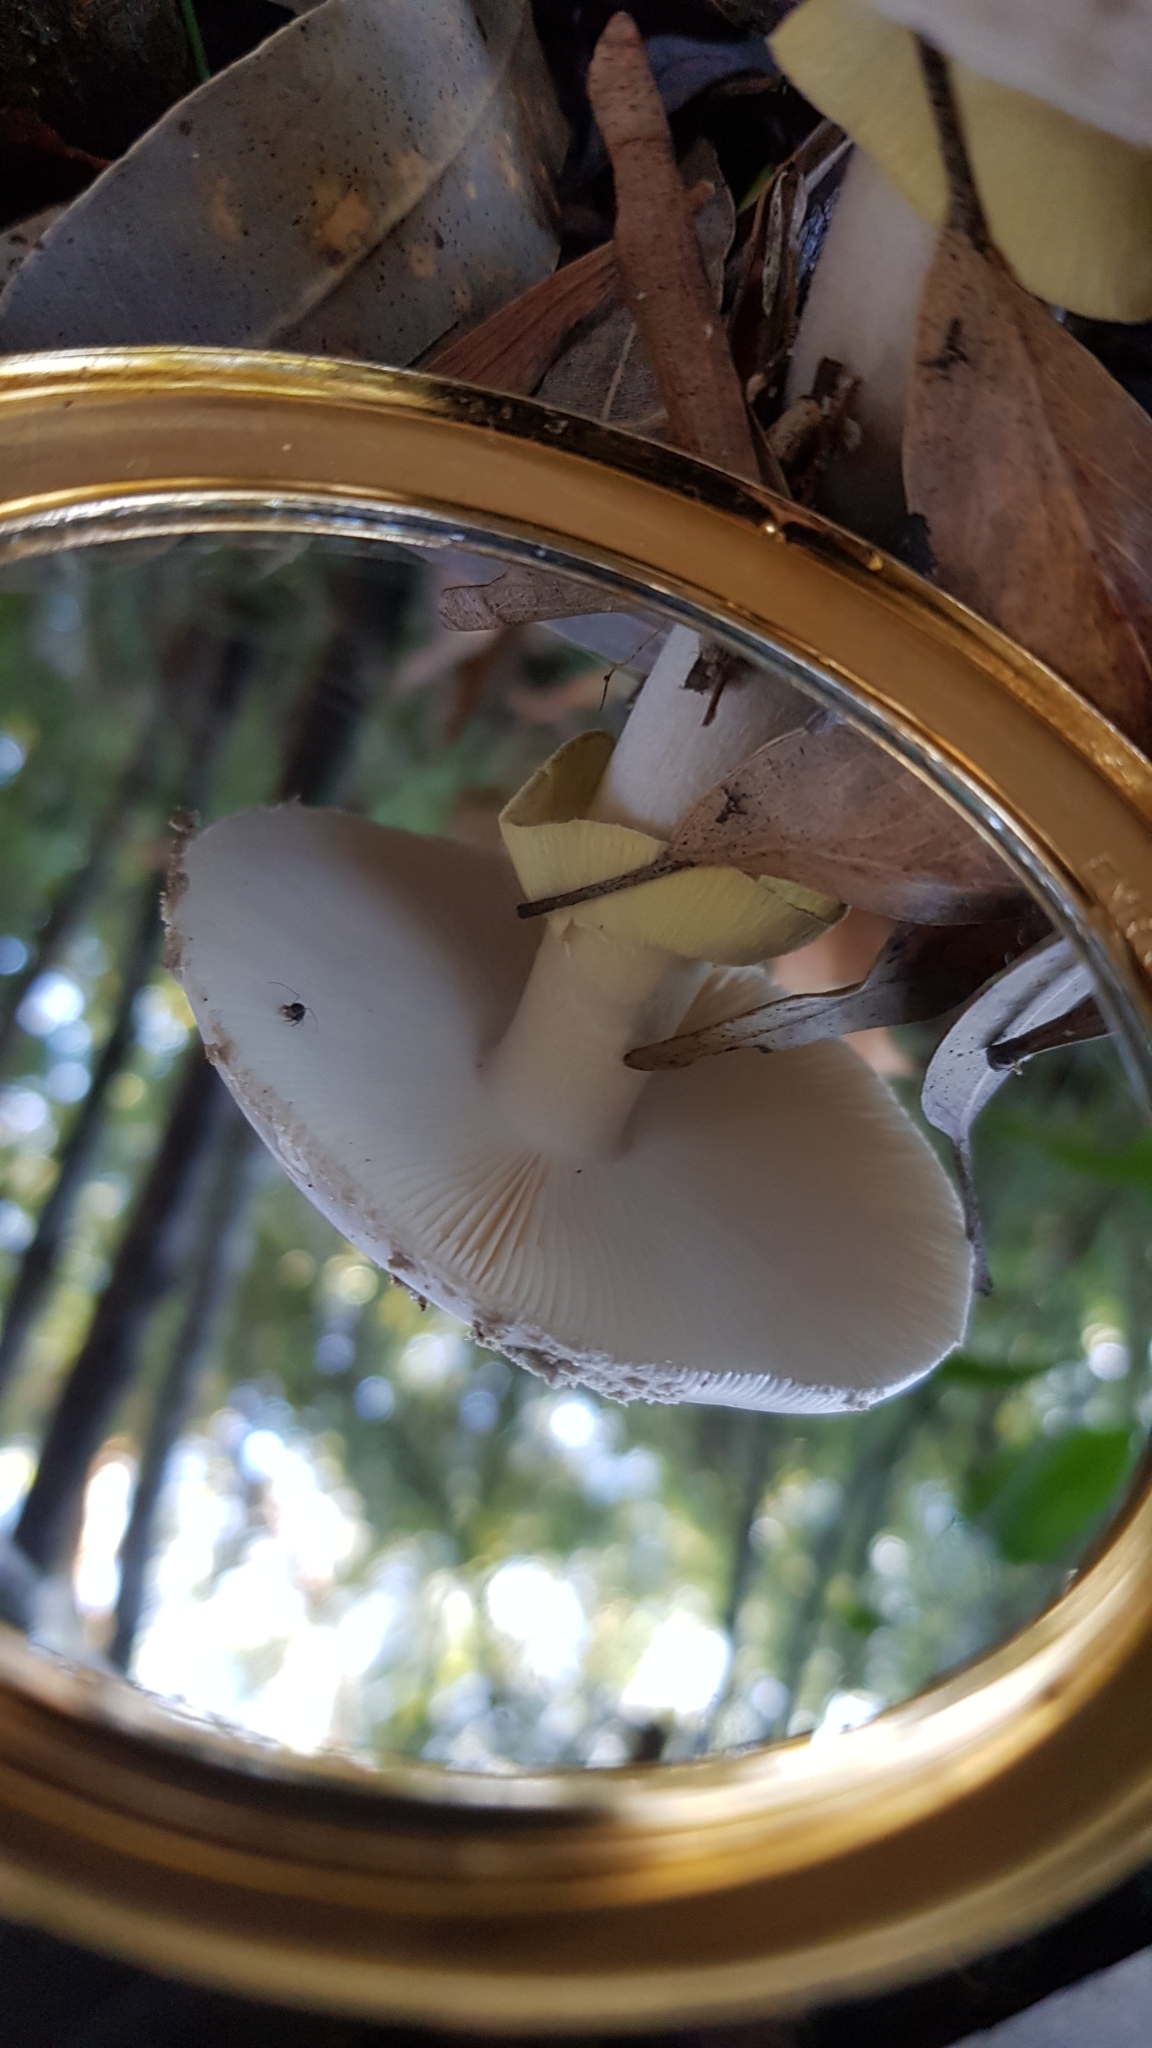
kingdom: Fungi
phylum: Basidiomycota
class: Agaricomycetes
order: Agaricales
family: Amanitaceae
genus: Amanita
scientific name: Amanita luteolovelata
